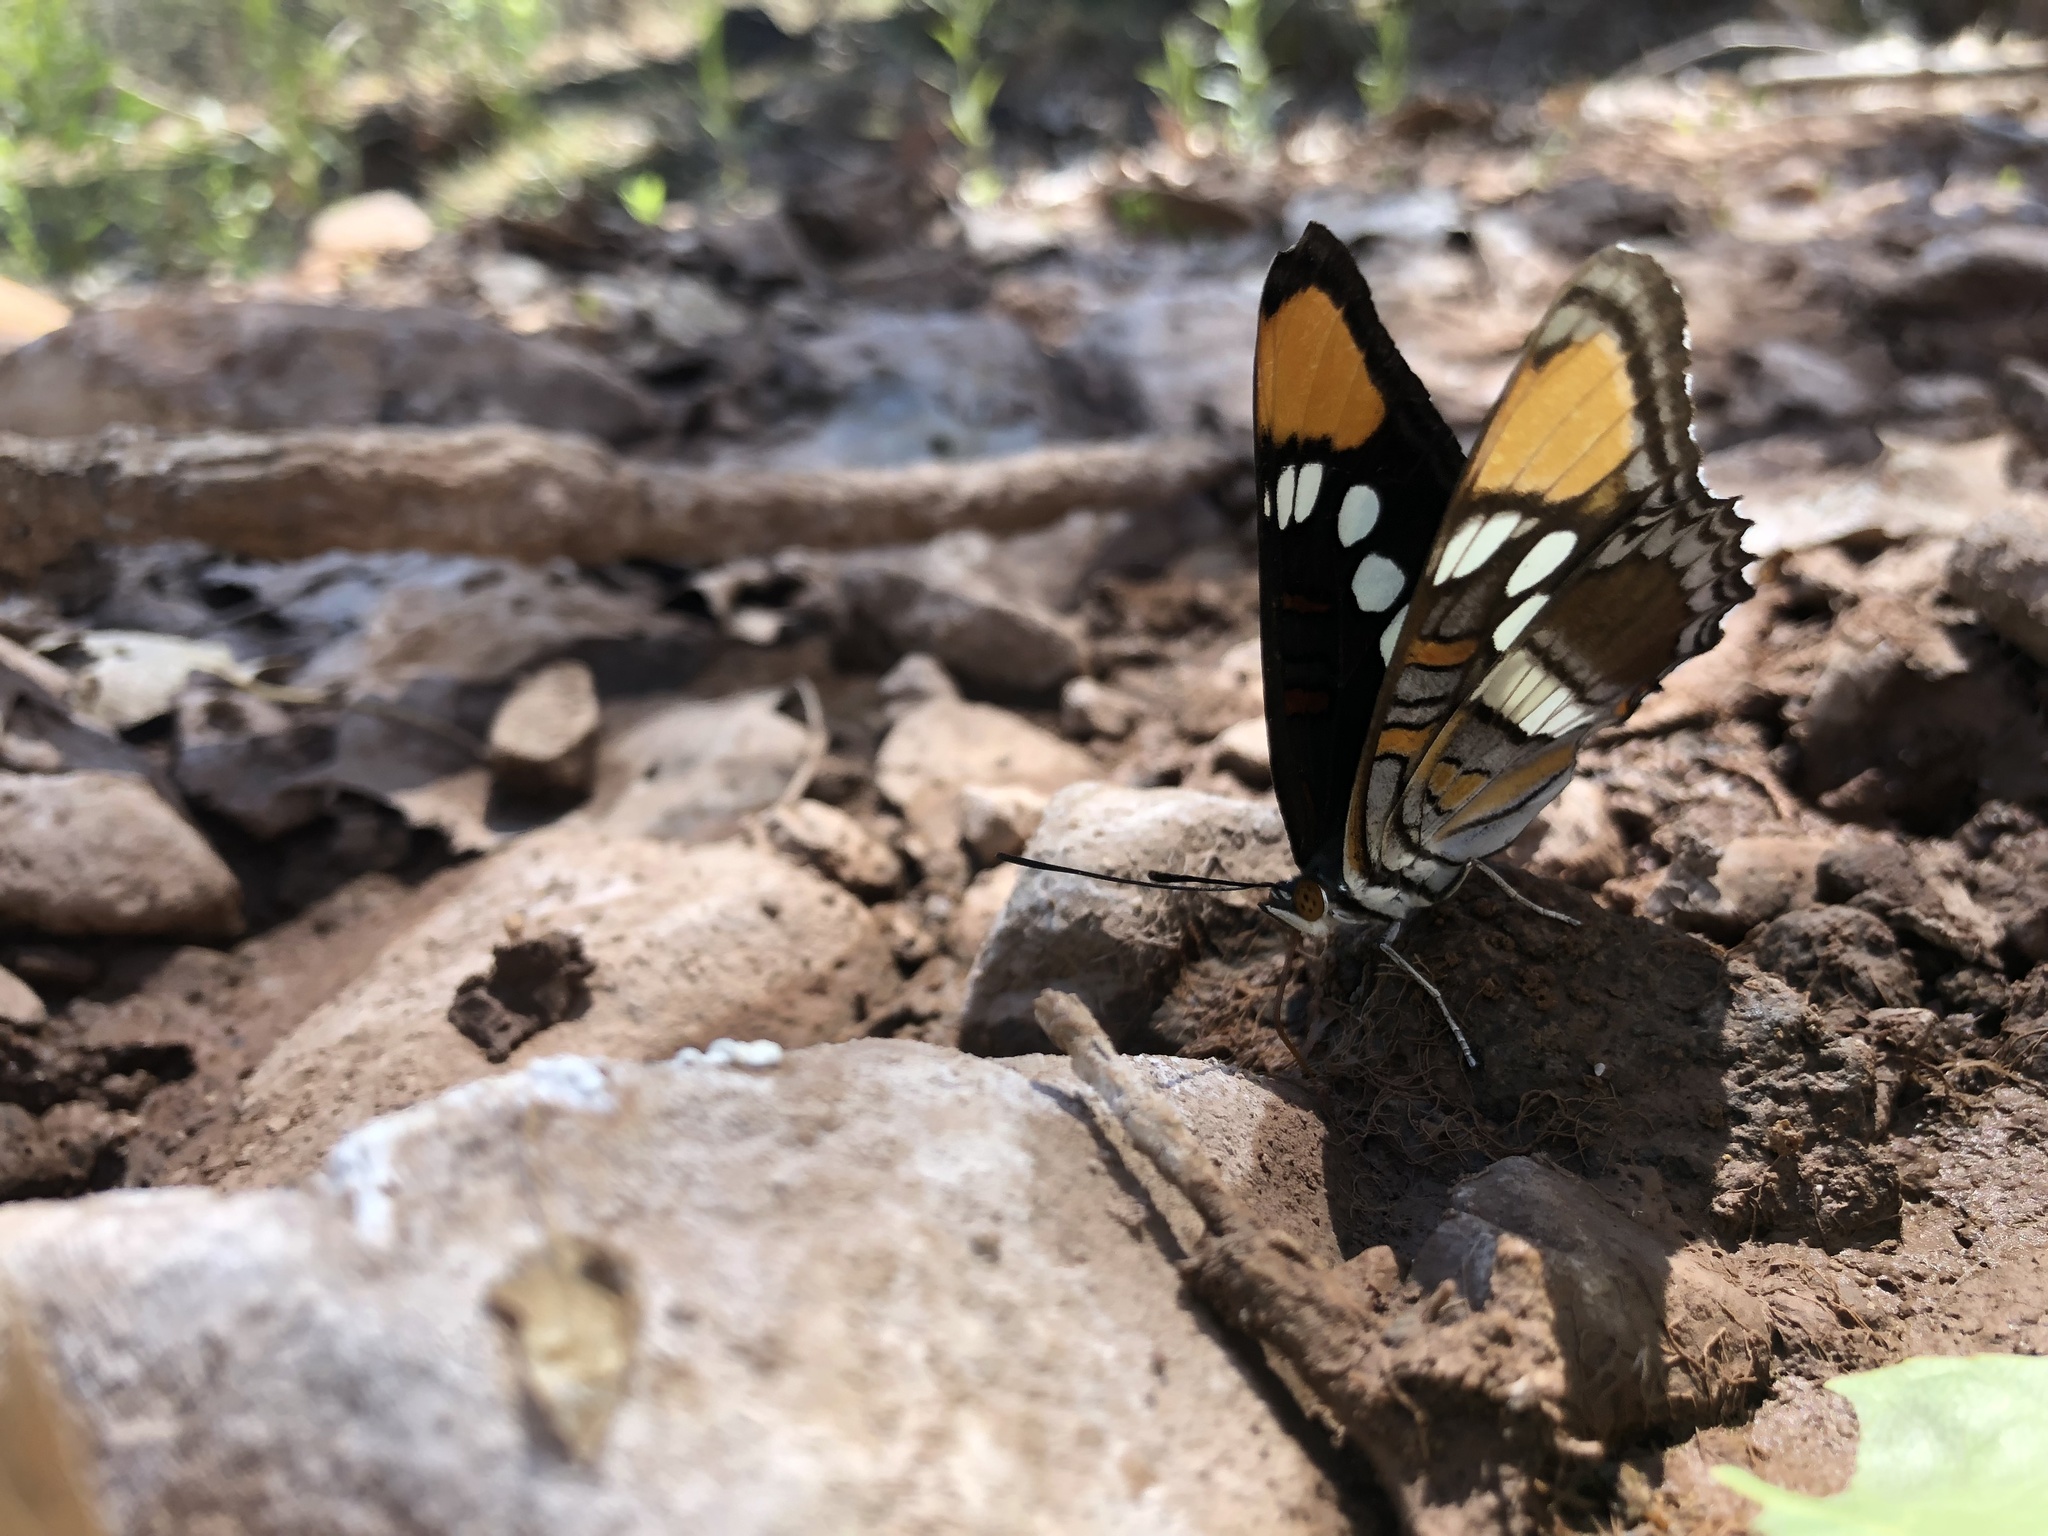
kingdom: Animalia
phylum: Arthropoda
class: Insecta
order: Lepidoptera
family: Nymphalidae
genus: Limenitis
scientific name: Limenitis bredowii
